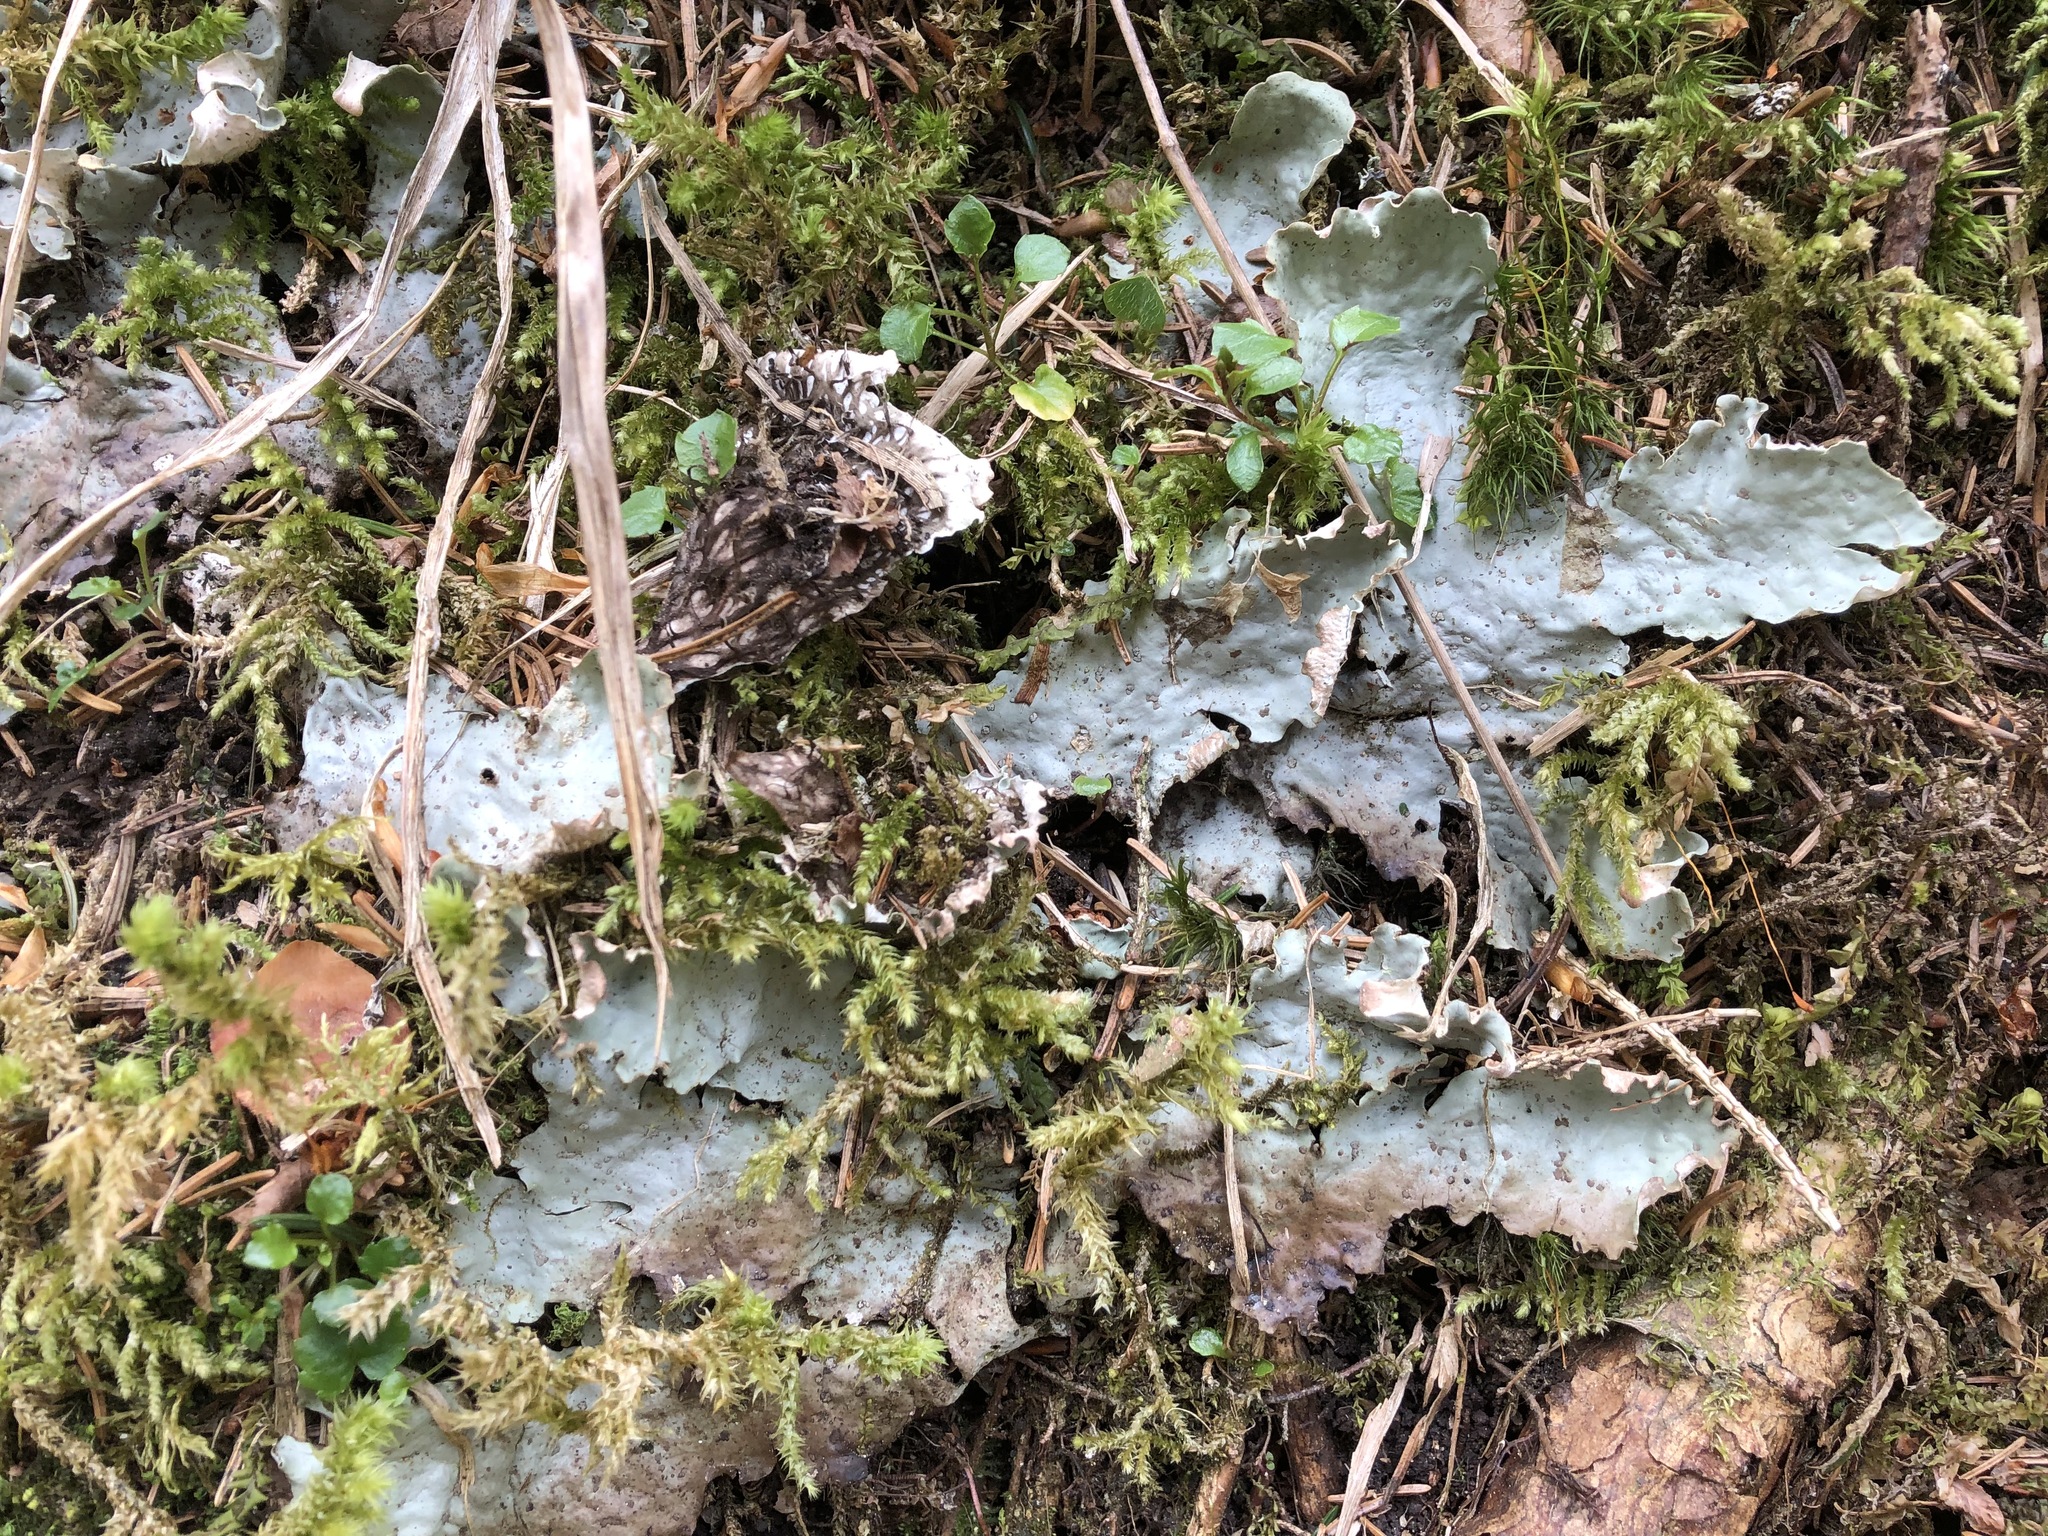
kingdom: Fungi
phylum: Ascomycota
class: Lecanoromycetes
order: Peltigerales
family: Peltigeraceae
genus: Peltigera
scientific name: Peltigera leucophlebia
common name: Ruffled freckle pelt lichen
